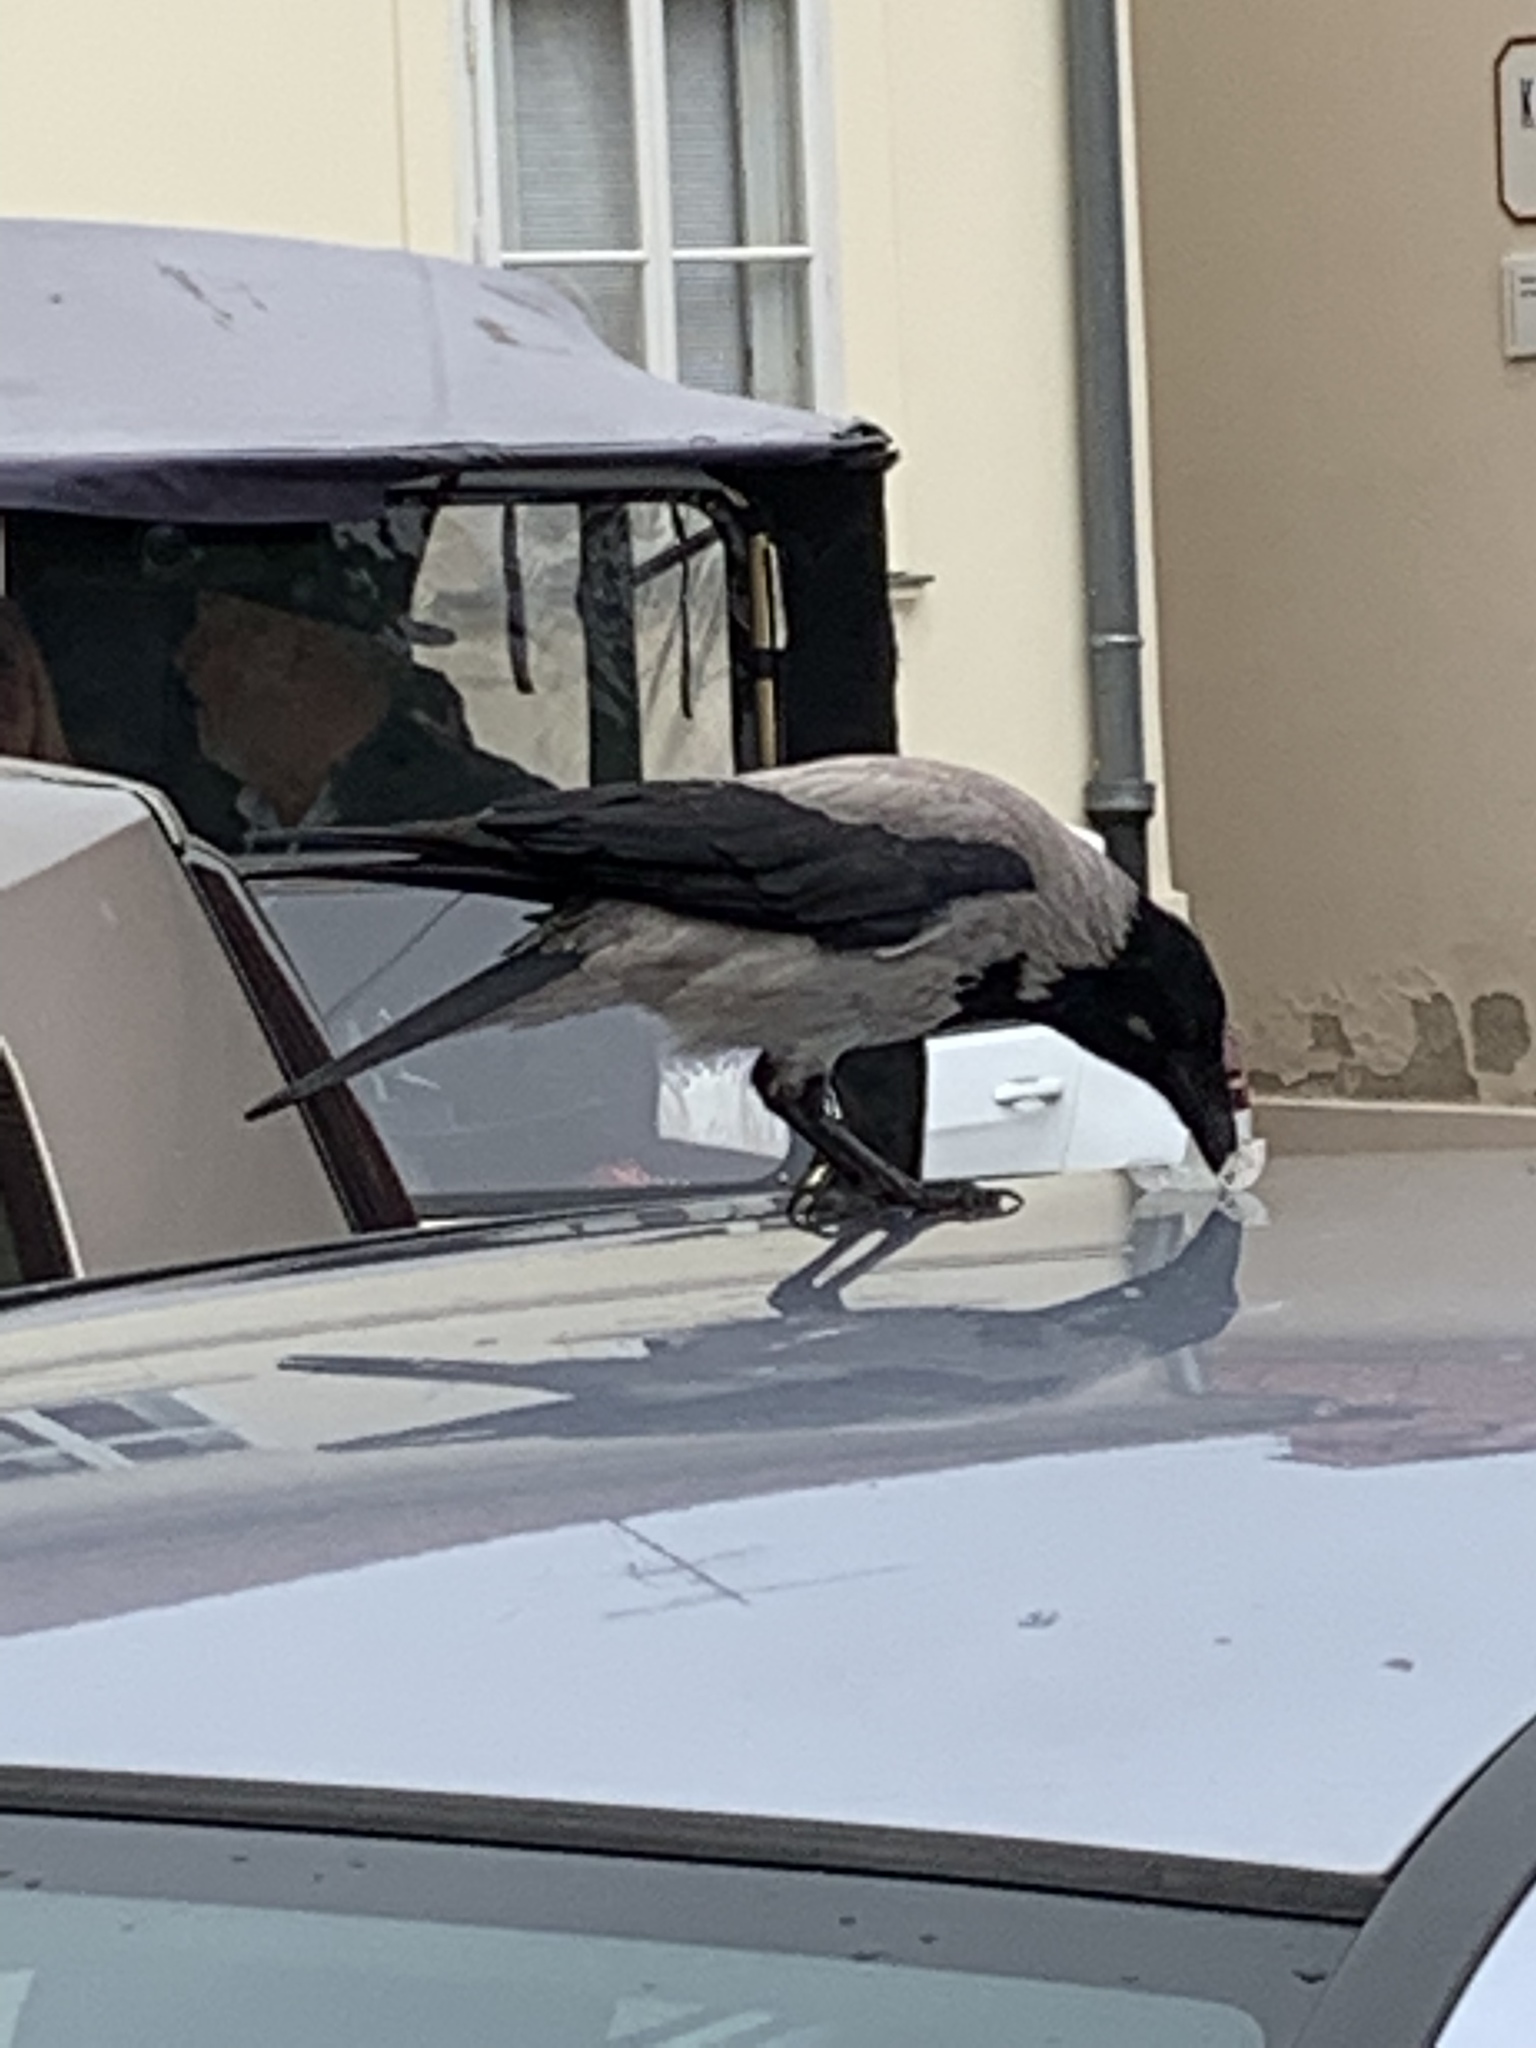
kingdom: Animalia
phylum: Chordata
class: Aves
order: Passeriformes
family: Corvidae
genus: Corvus
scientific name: Corvus cornix
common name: Hooded crow
